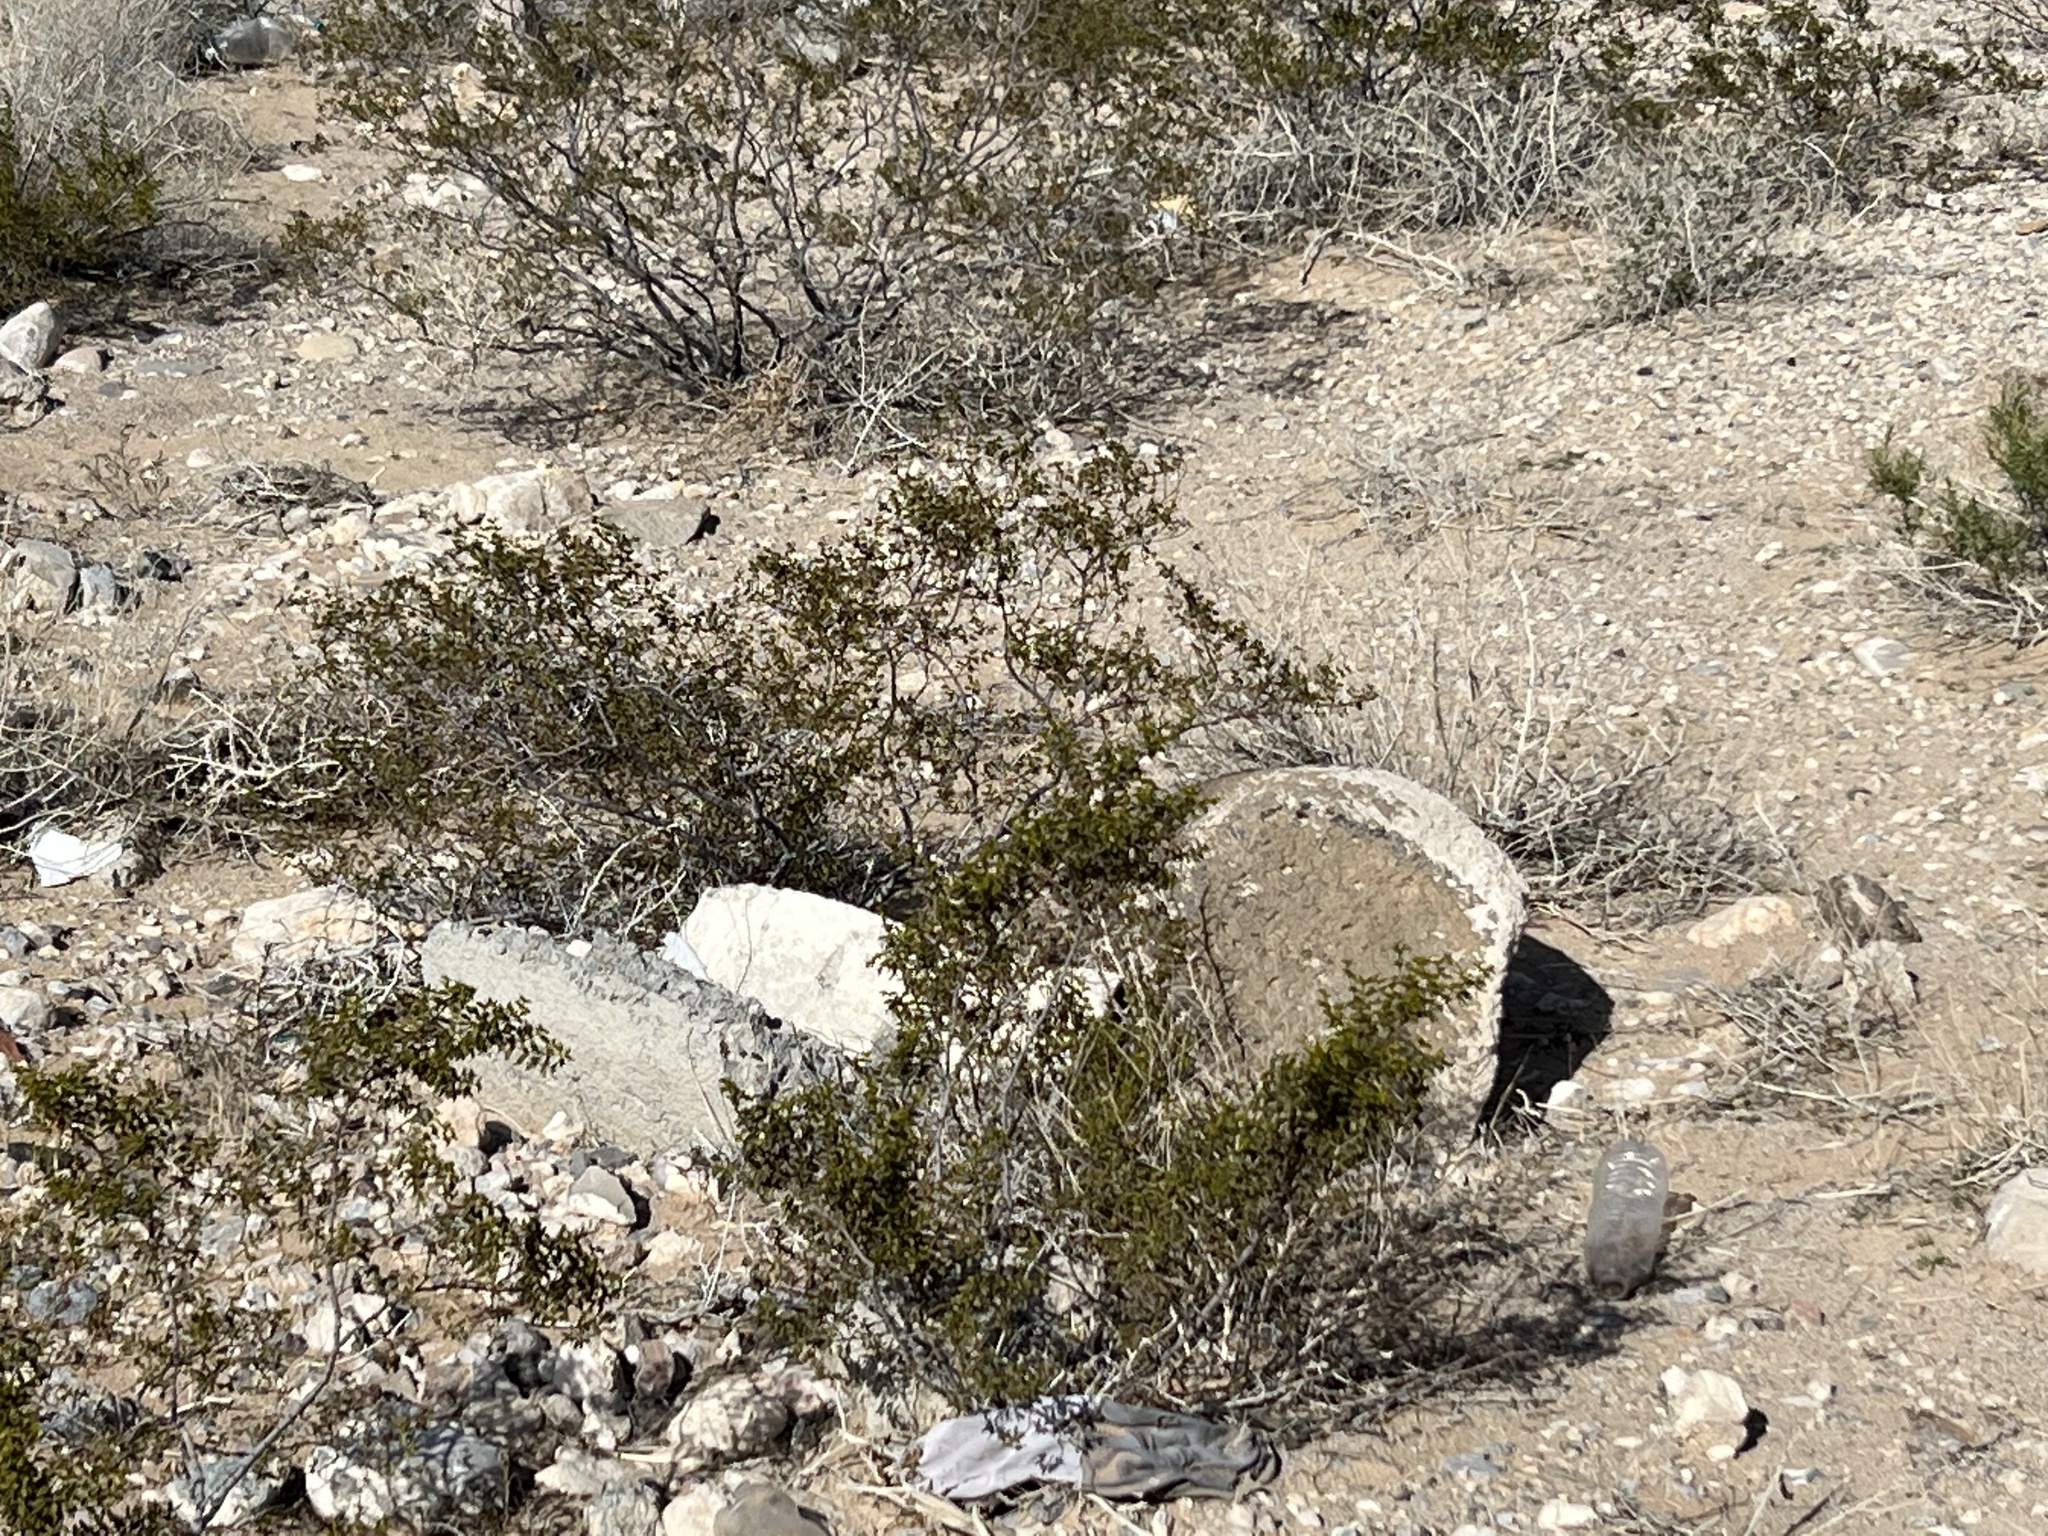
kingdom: Plantae
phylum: Tracheophyta
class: Magnoliopsida
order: Zygophyllales
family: Zygophyllaceae
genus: Larrea
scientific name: Larrea tridentata
